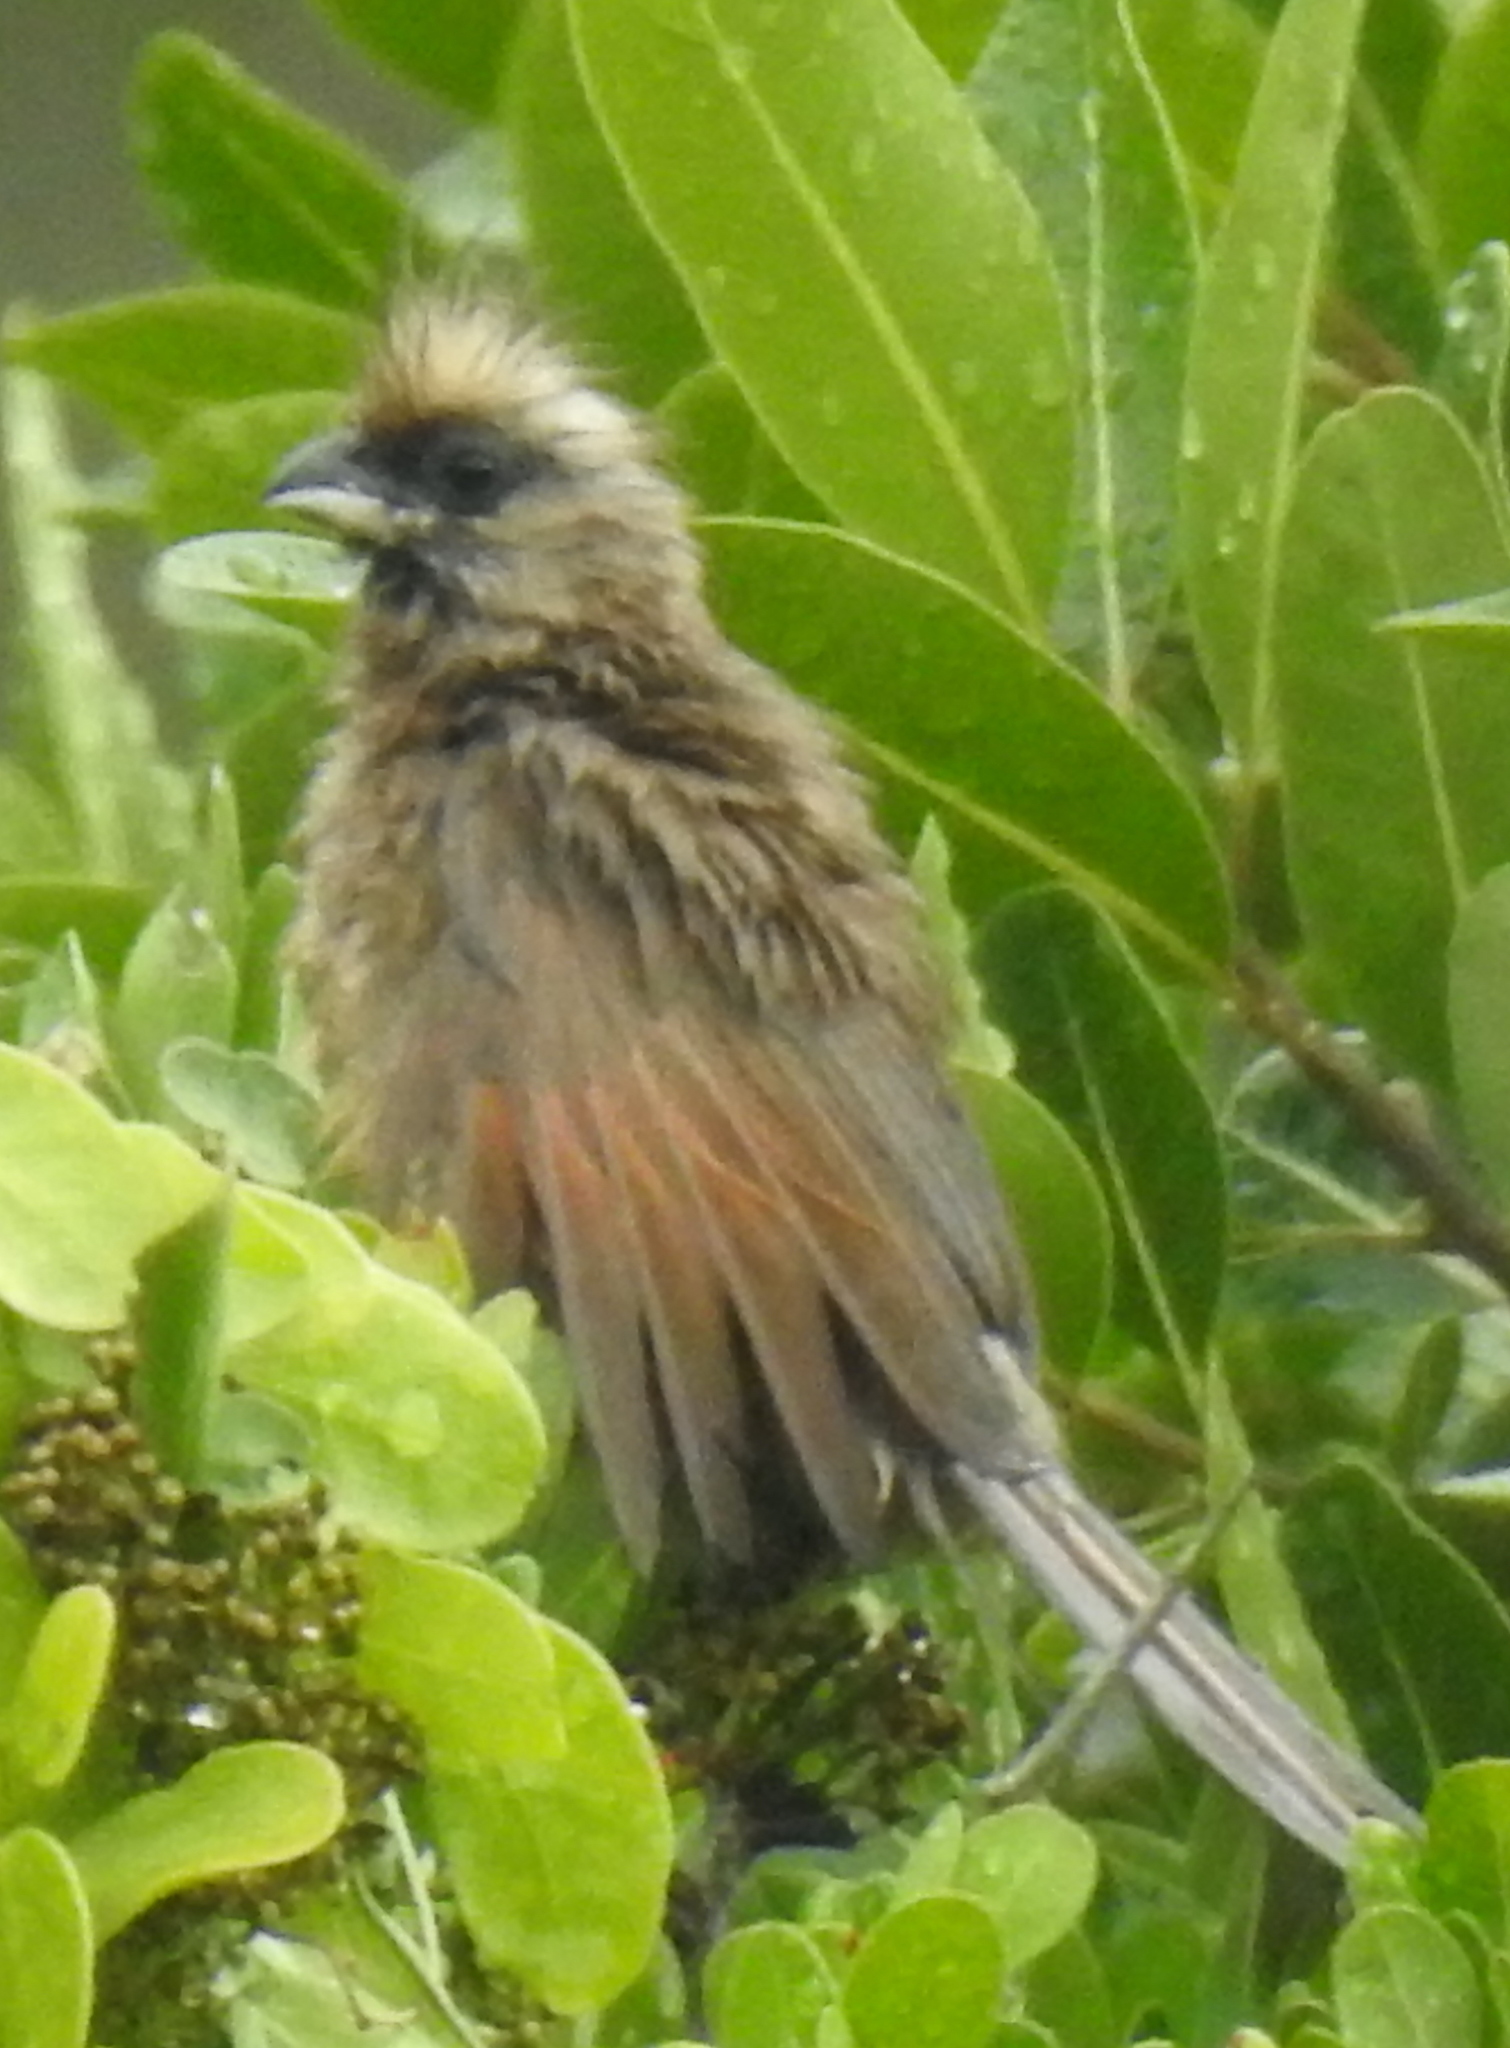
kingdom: Animalia
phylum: Chordata
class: Aves
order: Coliiformes
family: Coliidae
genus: Colius
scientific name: Colius striatus
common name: Speckled mousebird
